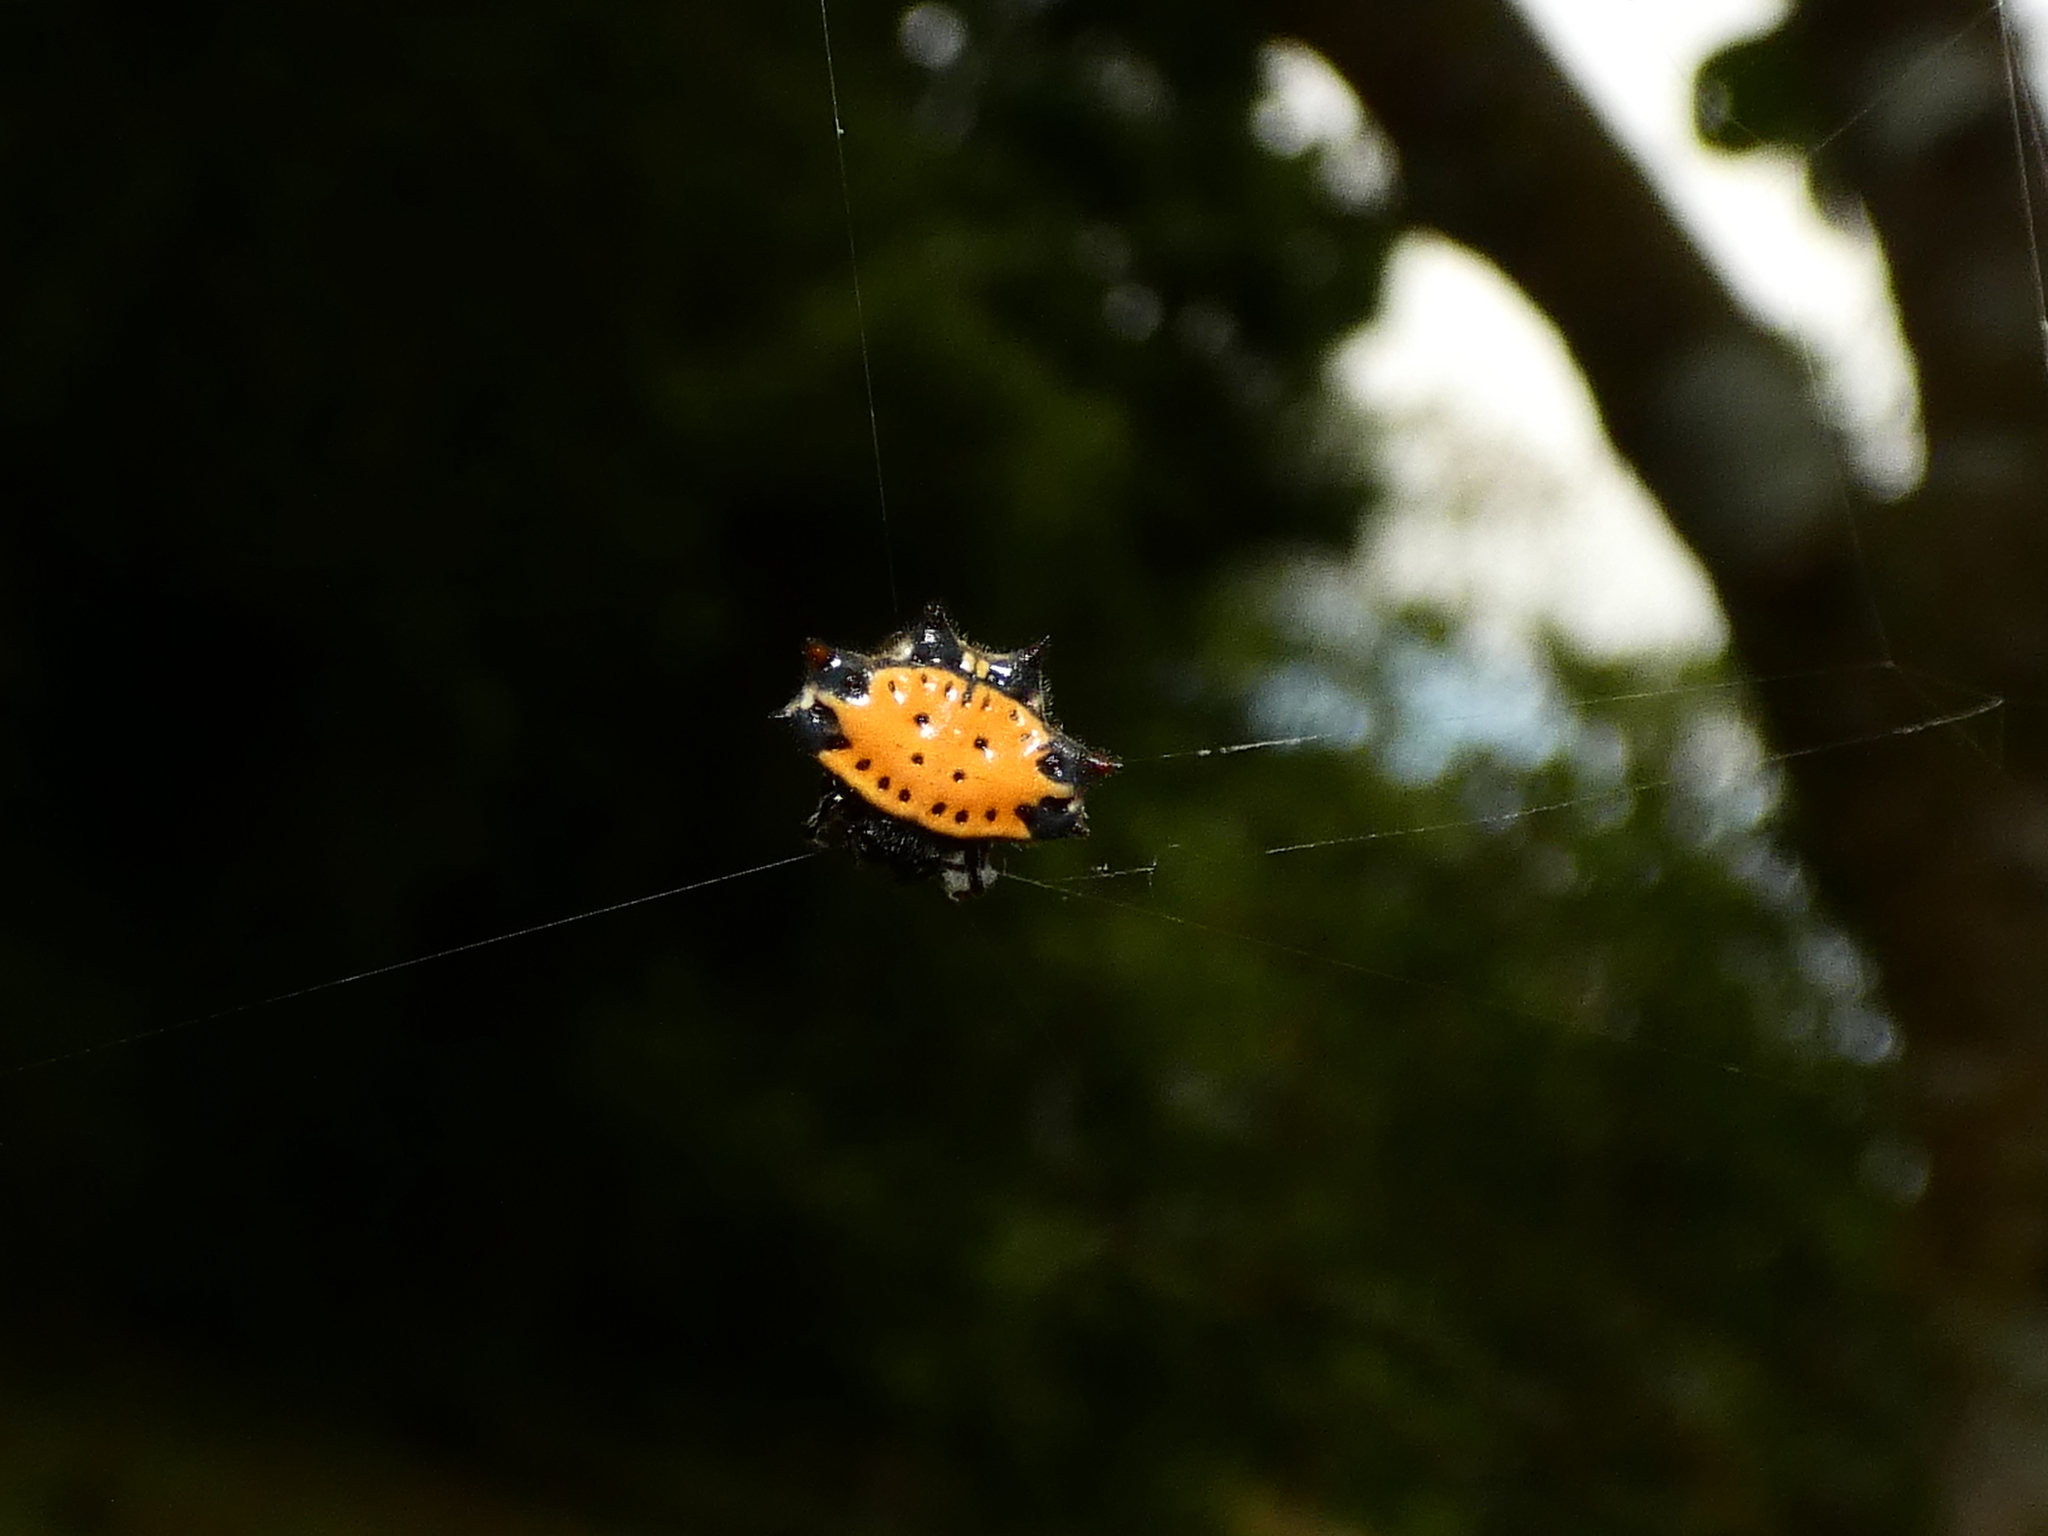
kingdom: Animalia
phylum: Arthropoda
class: Arachnida
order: Araneae
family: Araneidae
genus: Gasteracantha
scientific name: Gasteracantha cancriformis
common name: Orb weavers
